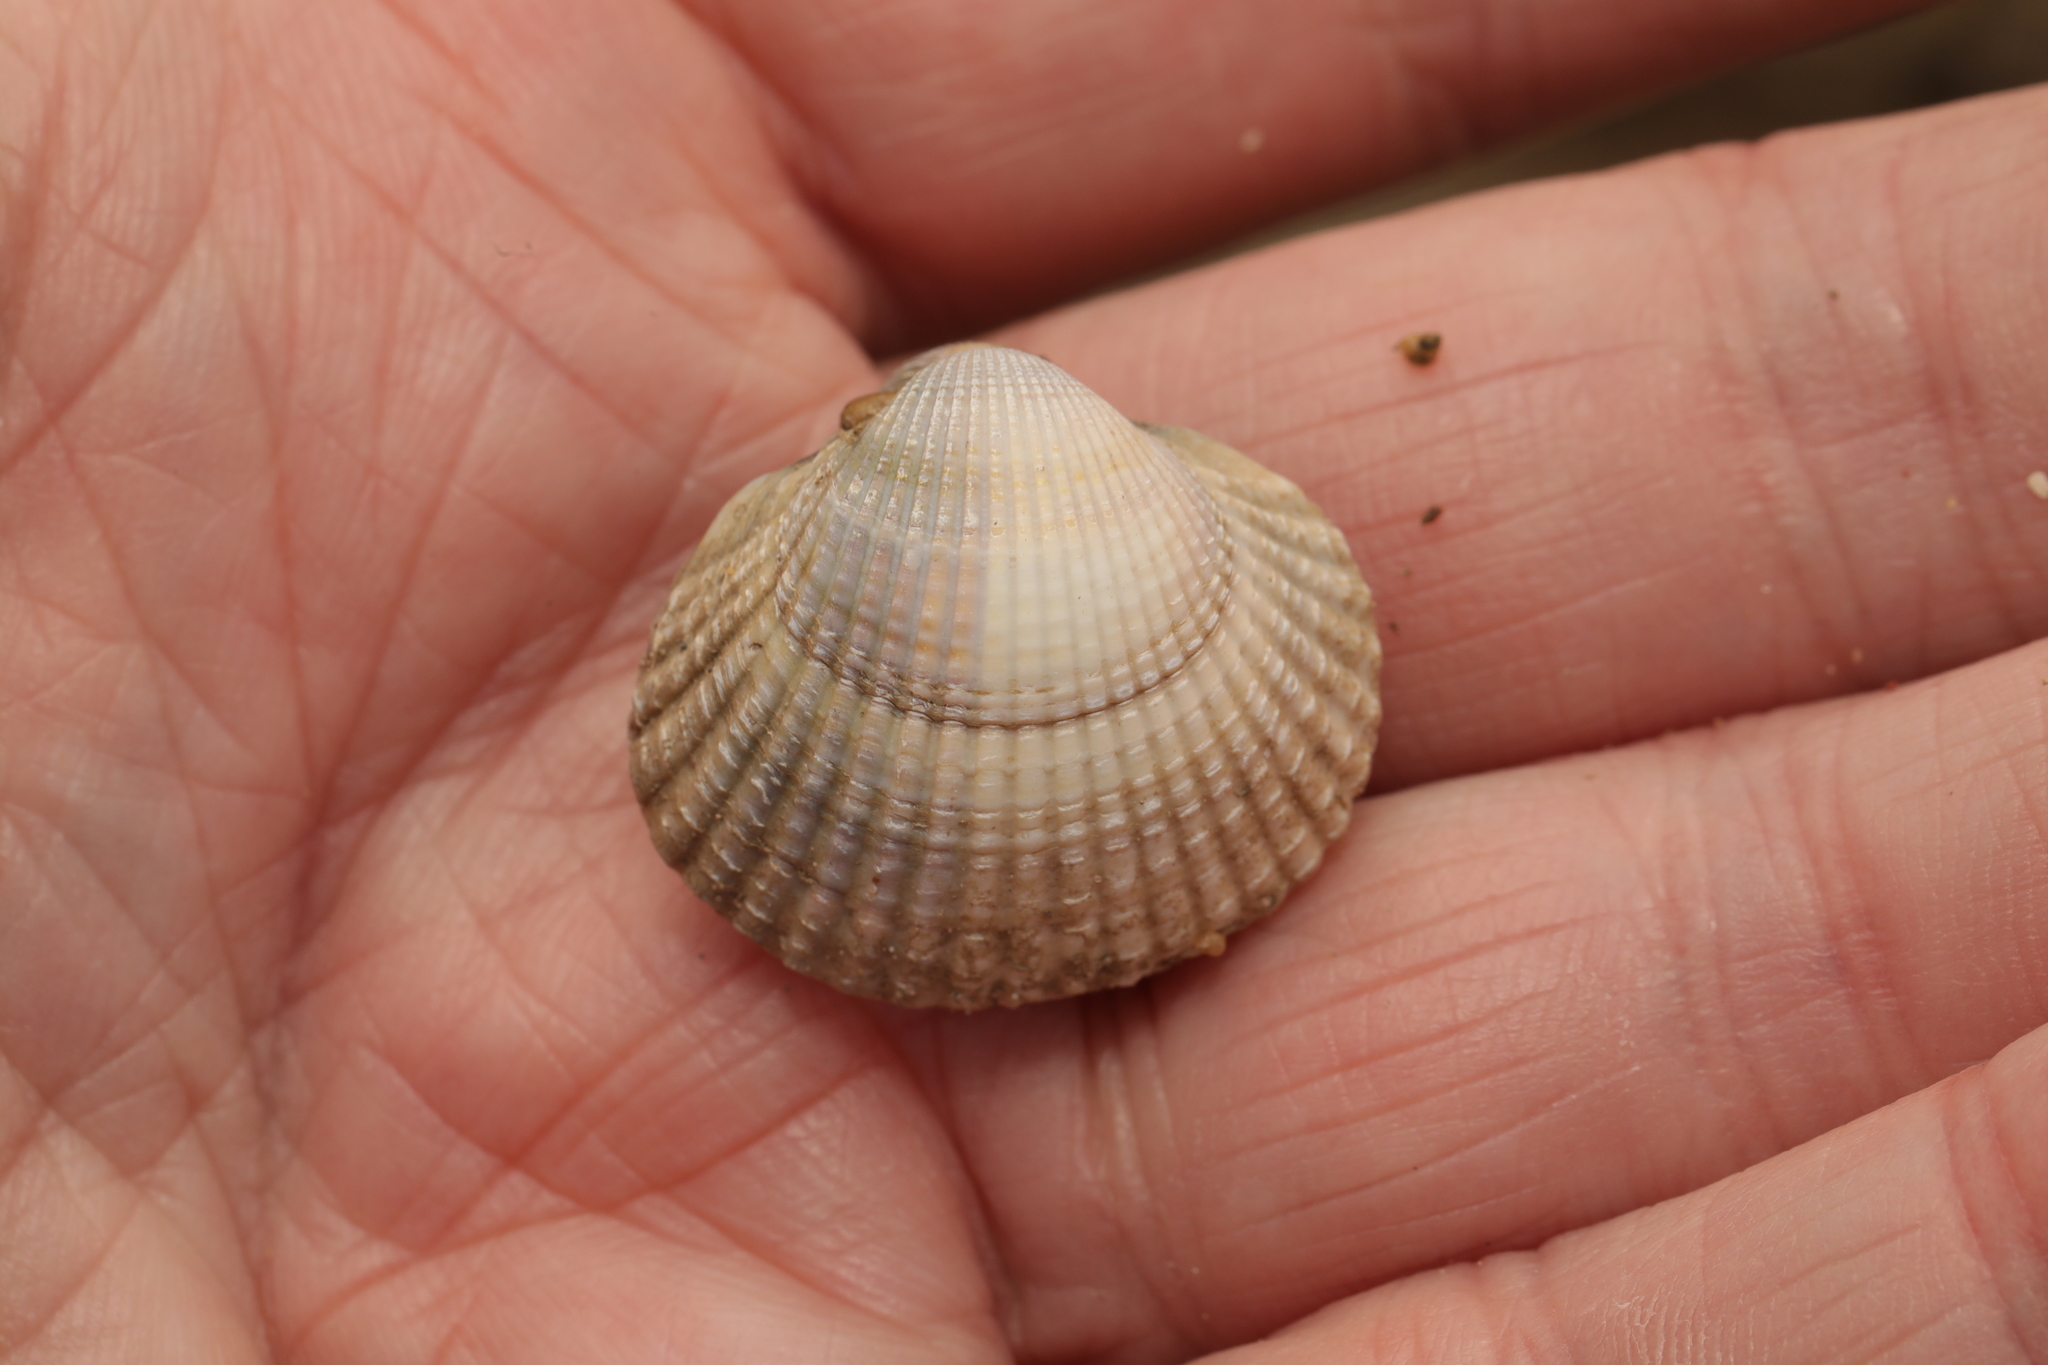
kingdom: Animalia
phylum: Mollusca
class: Bivalvia
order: Cardiida
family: Cardiidae
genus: Cerastoderma
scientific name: Cerastoderma edule
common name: Common cockle
